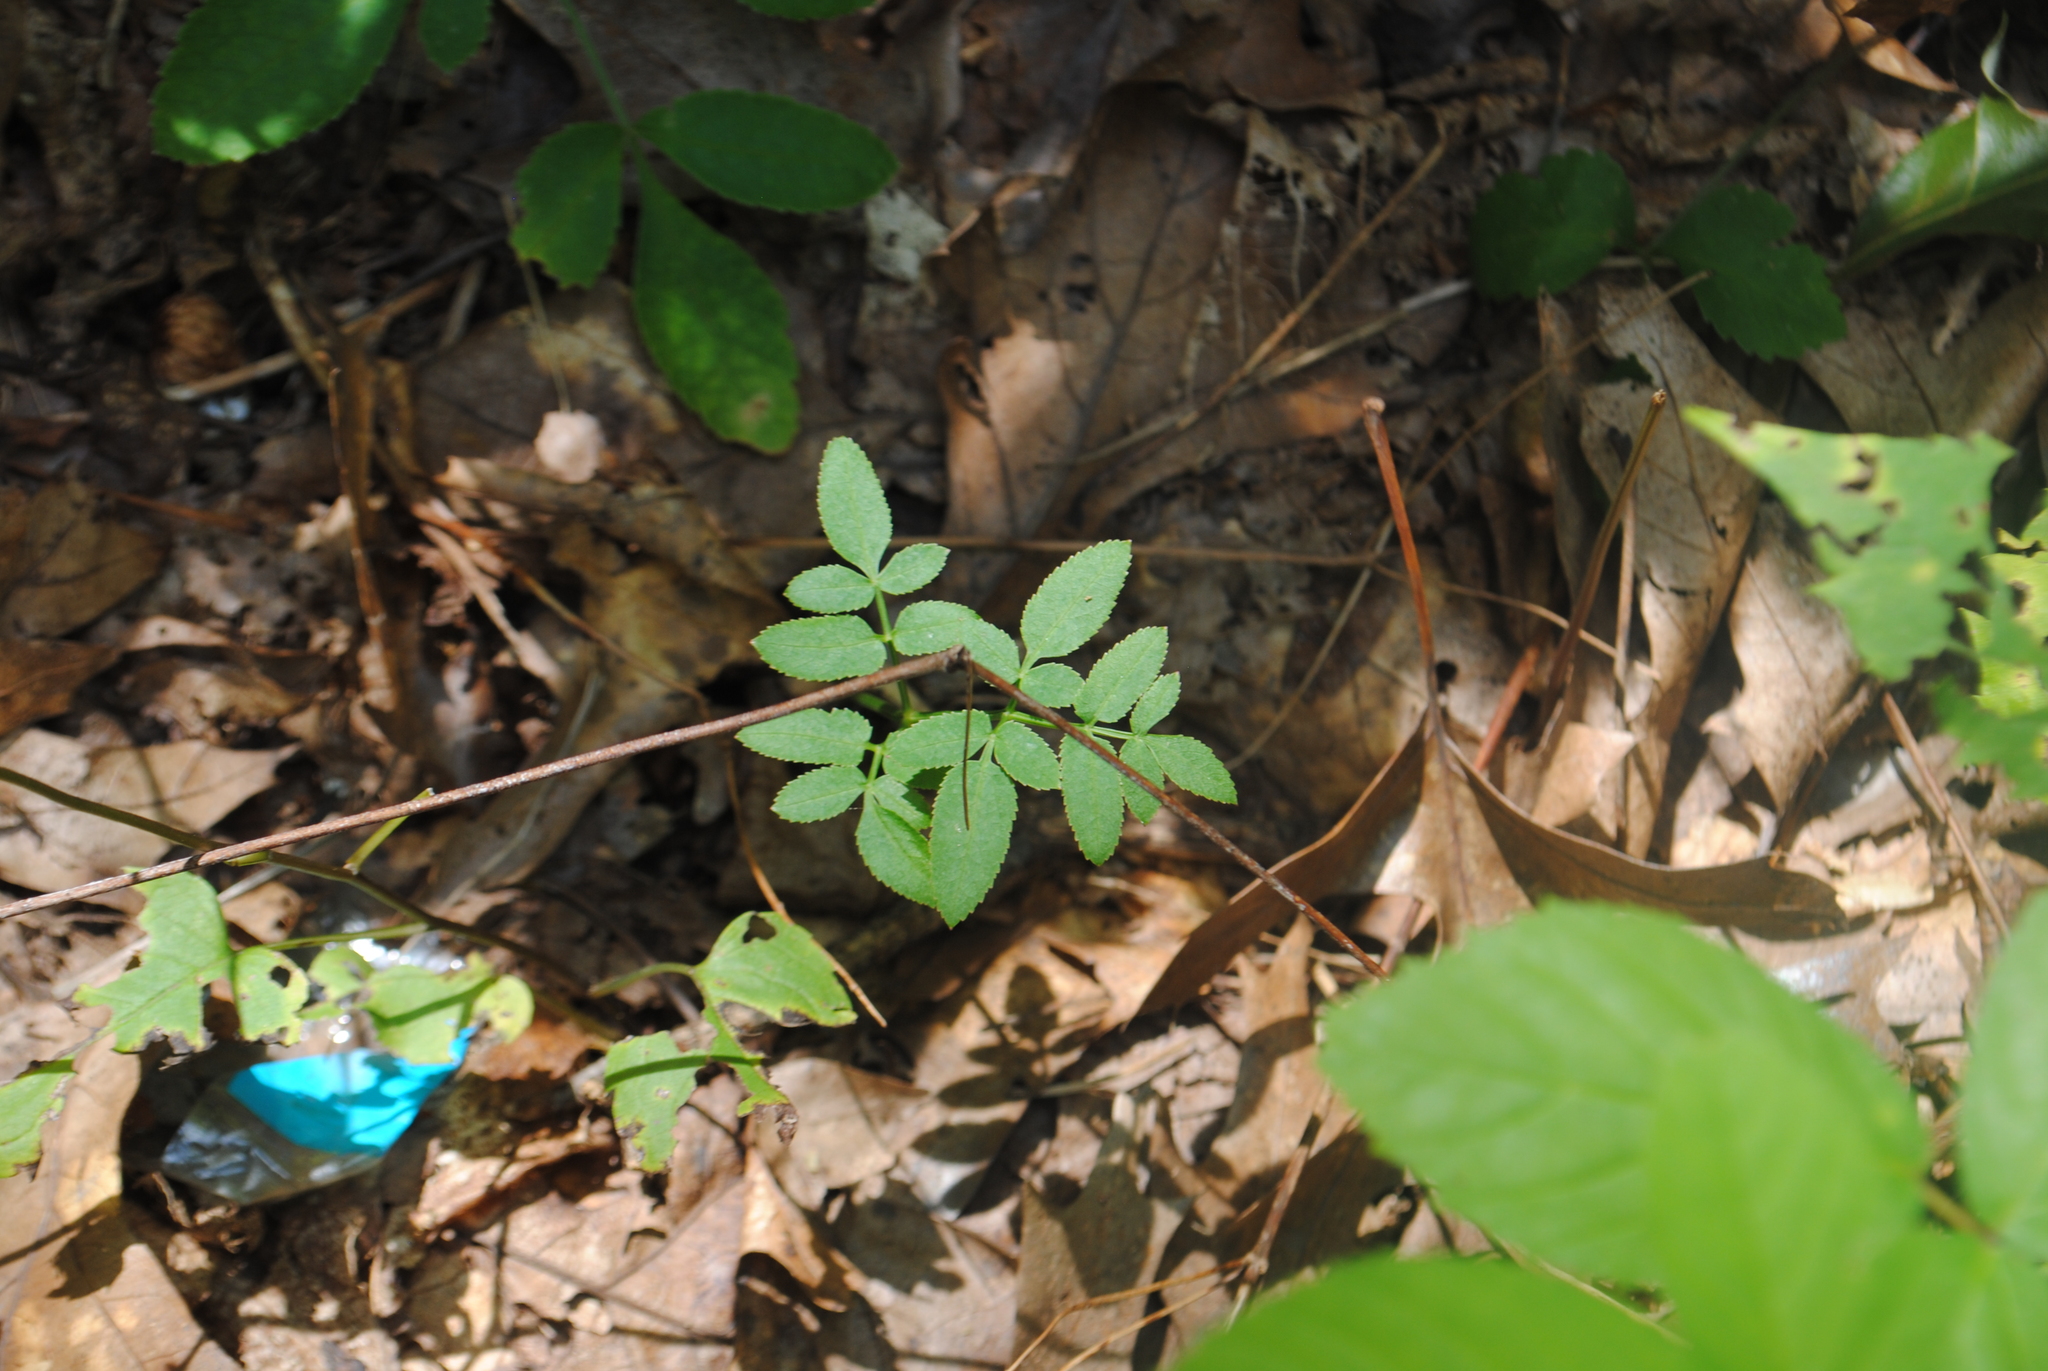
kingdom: Plantae
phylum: Tracheophyta
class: Magnoliopsida
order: Apiales
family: Apiaceae
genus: Angelica
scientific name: Angelica venenosa
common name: Hairy angelica
